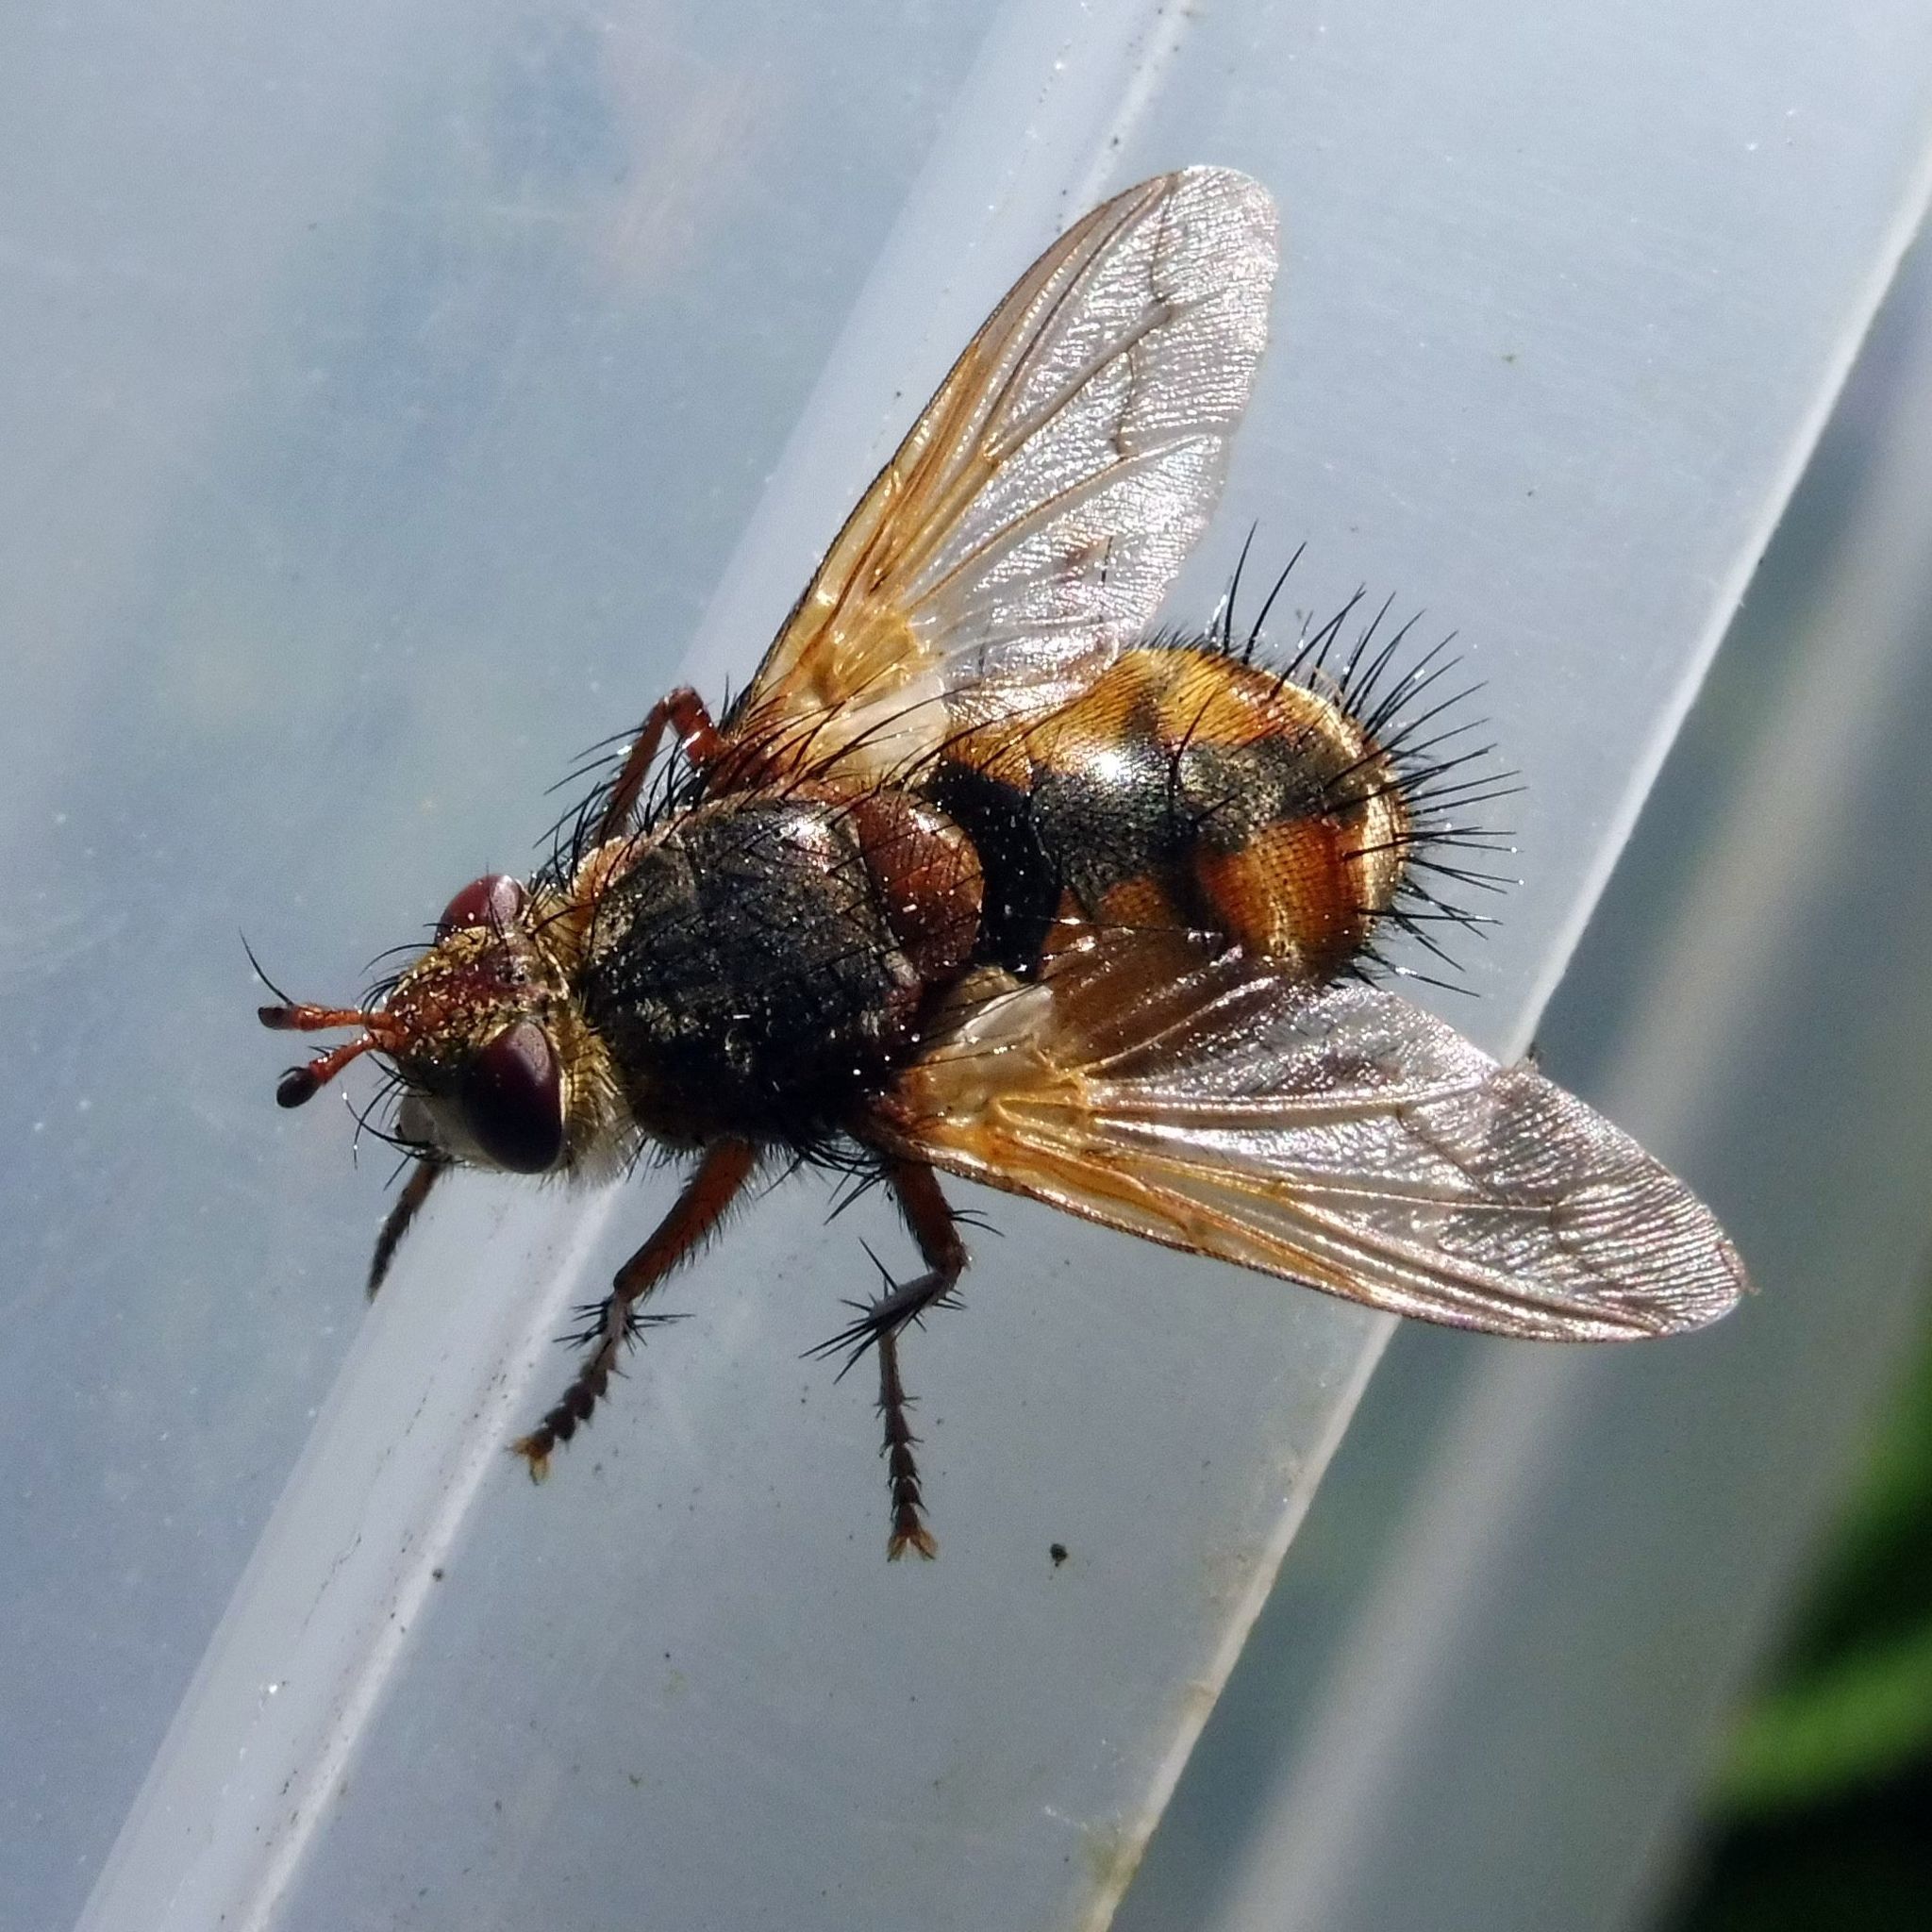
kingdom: Animalia
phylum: Arthropoda
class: Insecta
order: Diptera
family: Tachinidae
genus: Tachina
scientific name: Tachina fera
